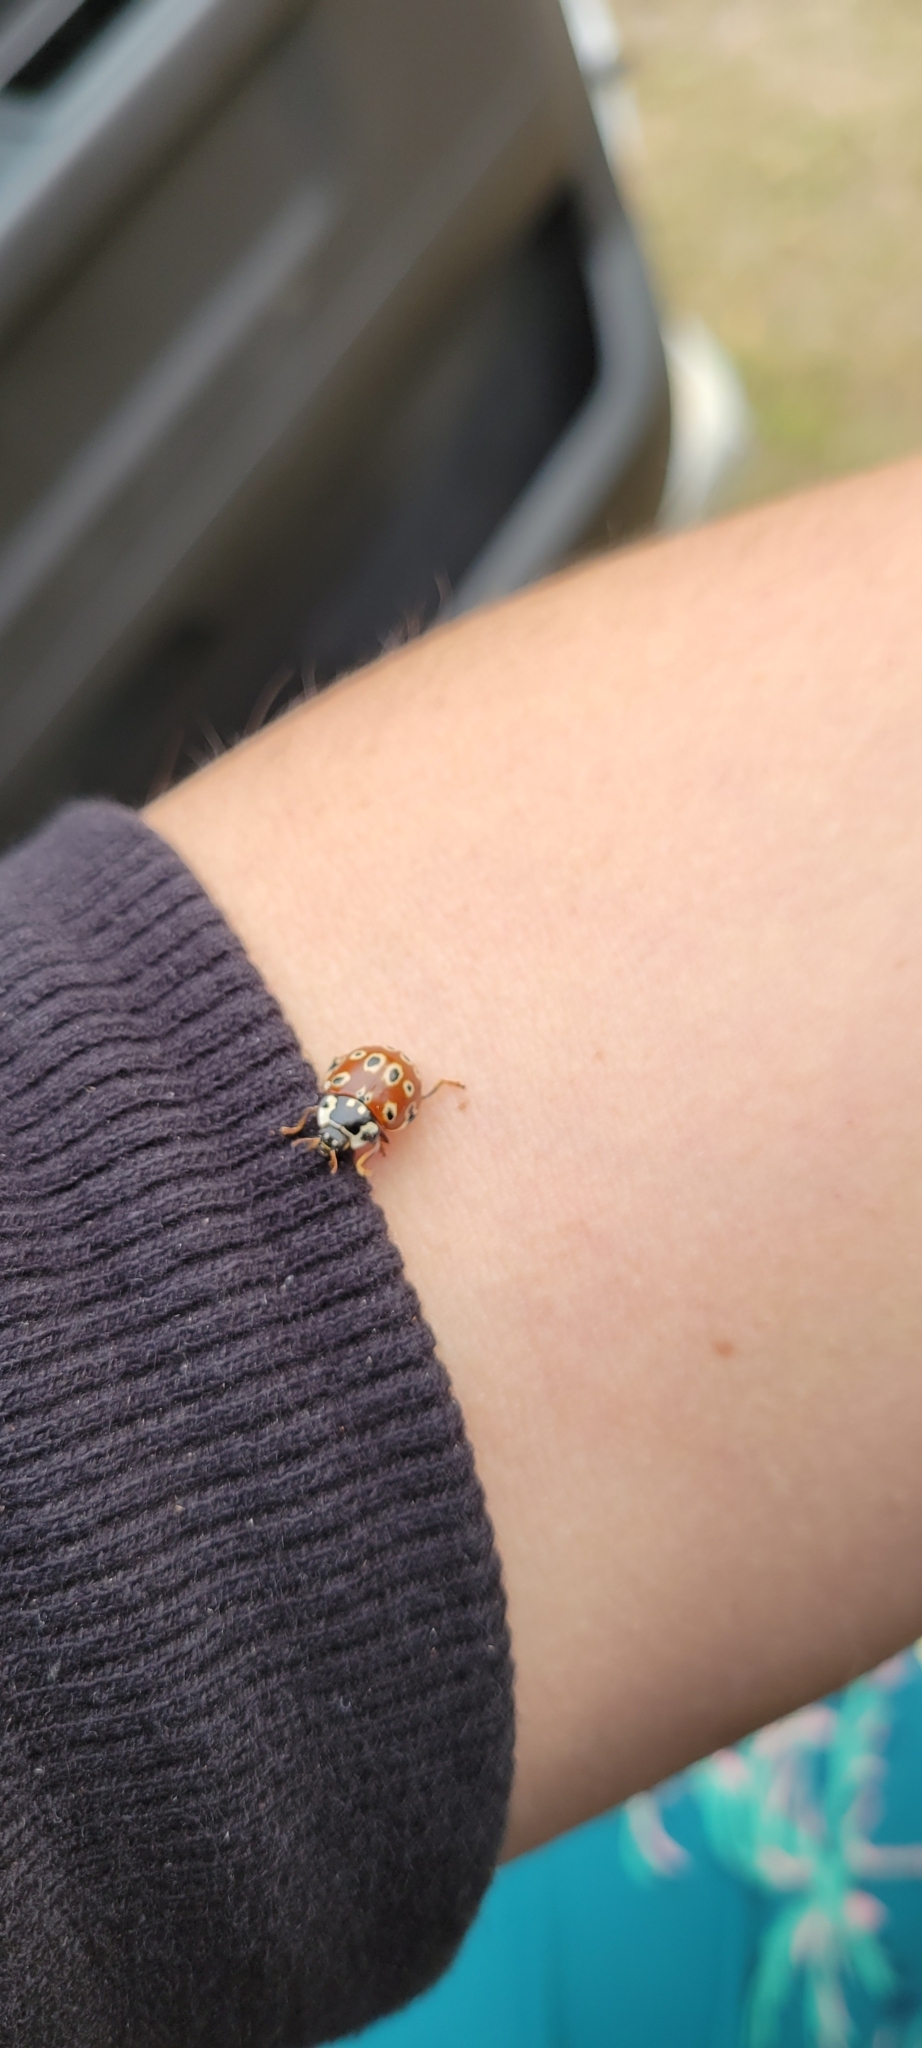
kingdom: Animalia
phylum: Arthropoda
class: Insecta
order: Coleoptera
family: Coccinellidae
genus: Anatis
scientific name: Anatis mali
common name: Eye-spotted lady beetle
